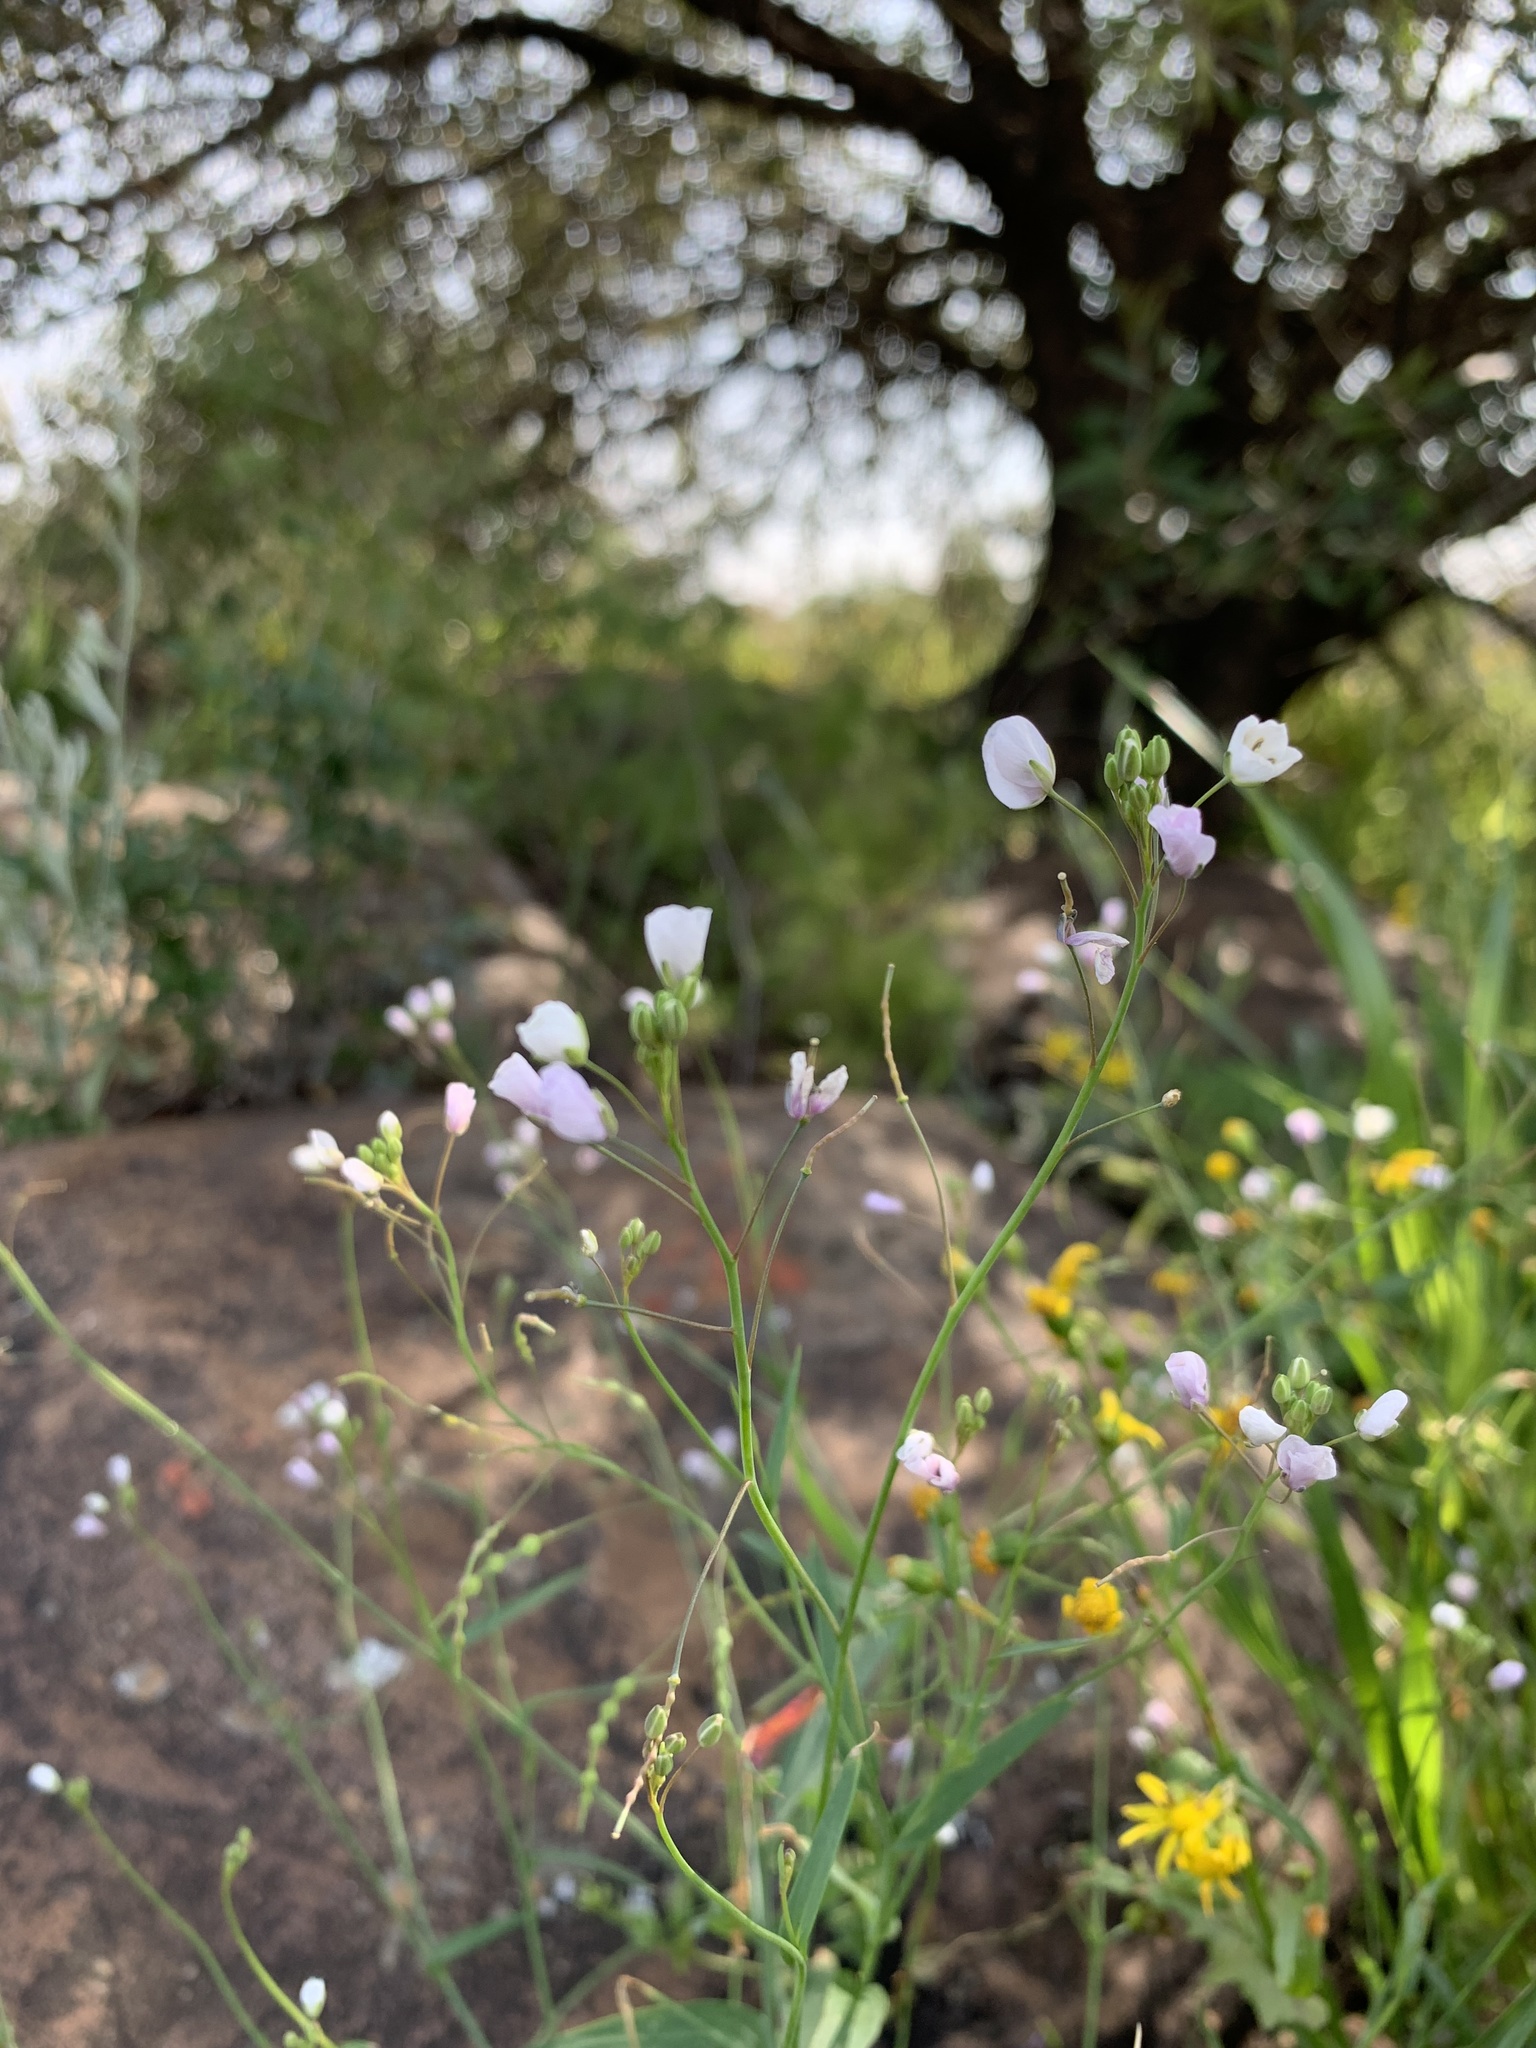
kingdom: Plantae
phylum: Tracheophyta
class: Magnoliopsida
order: Brassicales
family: Brassicaceae
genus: Heliophila
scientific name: Heliophila amplexicaulis
